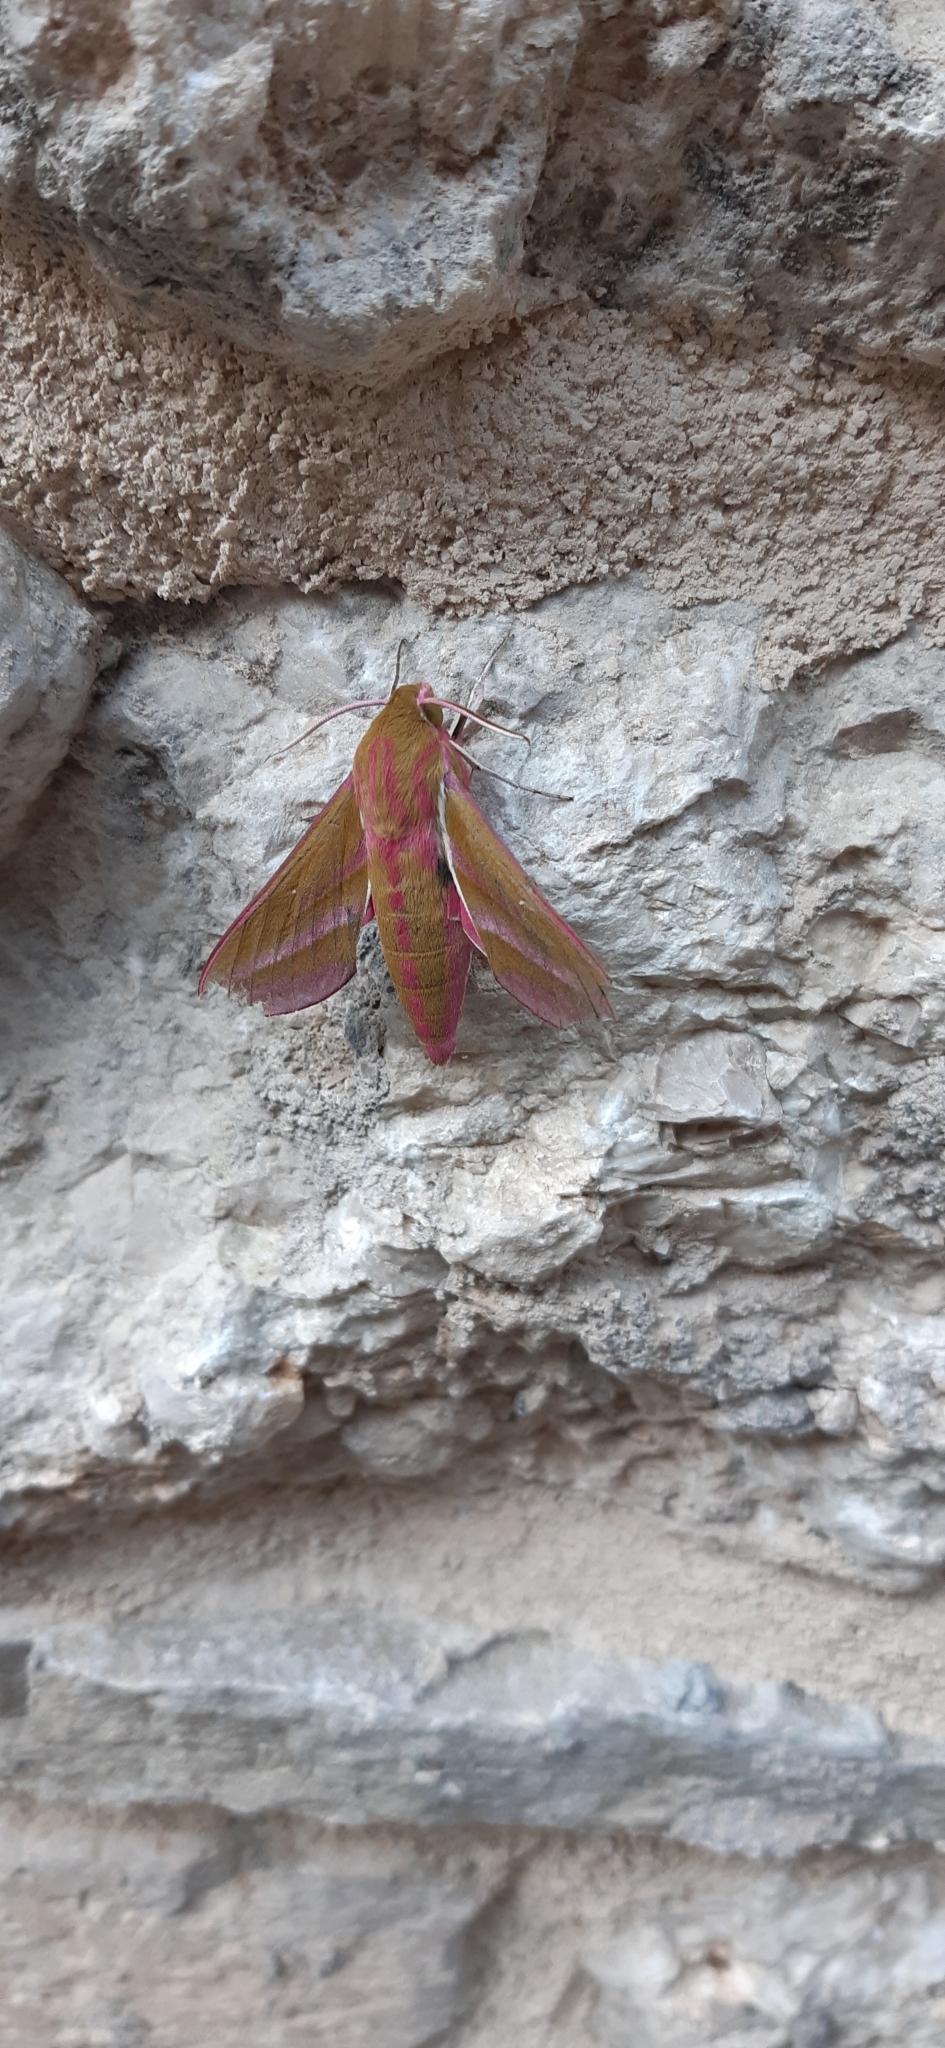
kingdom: Animalia
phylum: Arthropoda
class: Insecta
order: Lepidoptera
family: Sphingidae
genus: Deilephila
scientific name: Deilephila elpenor
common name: Elephant hawk-moth
